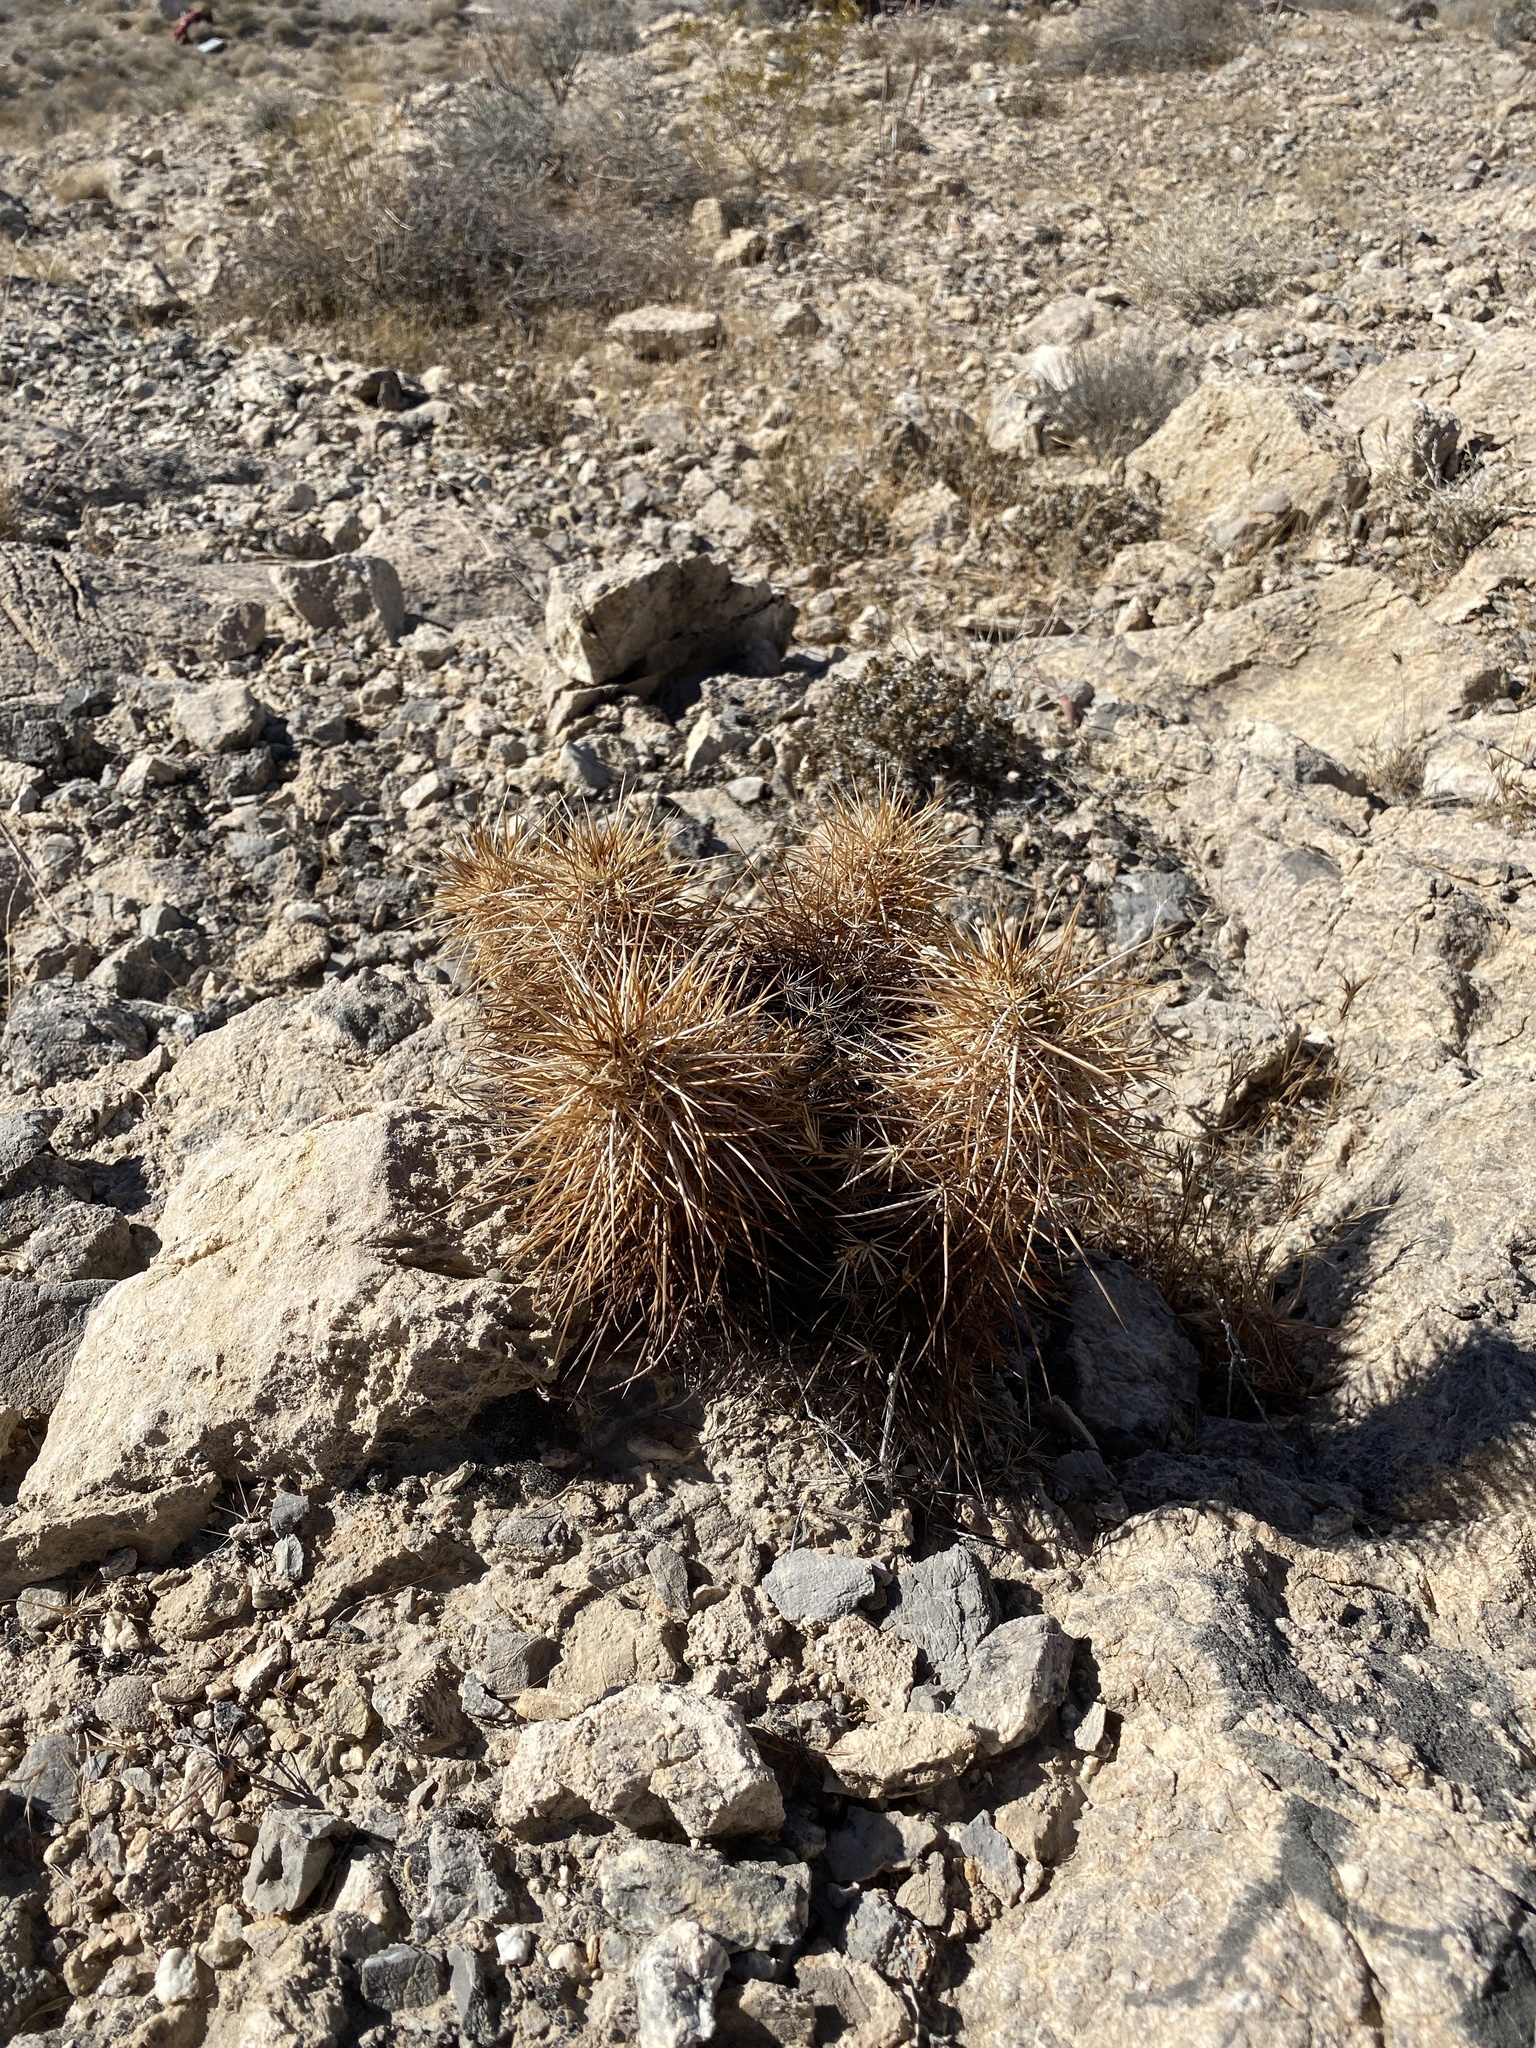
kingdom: Plantae
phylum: Tracheophyta
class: Magnoliopsida
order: Caryophyllales
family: Cactaceae
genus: Echinocereus
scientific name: Echinocereus engelmannii
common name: Engelmann's hedgehog cactus
